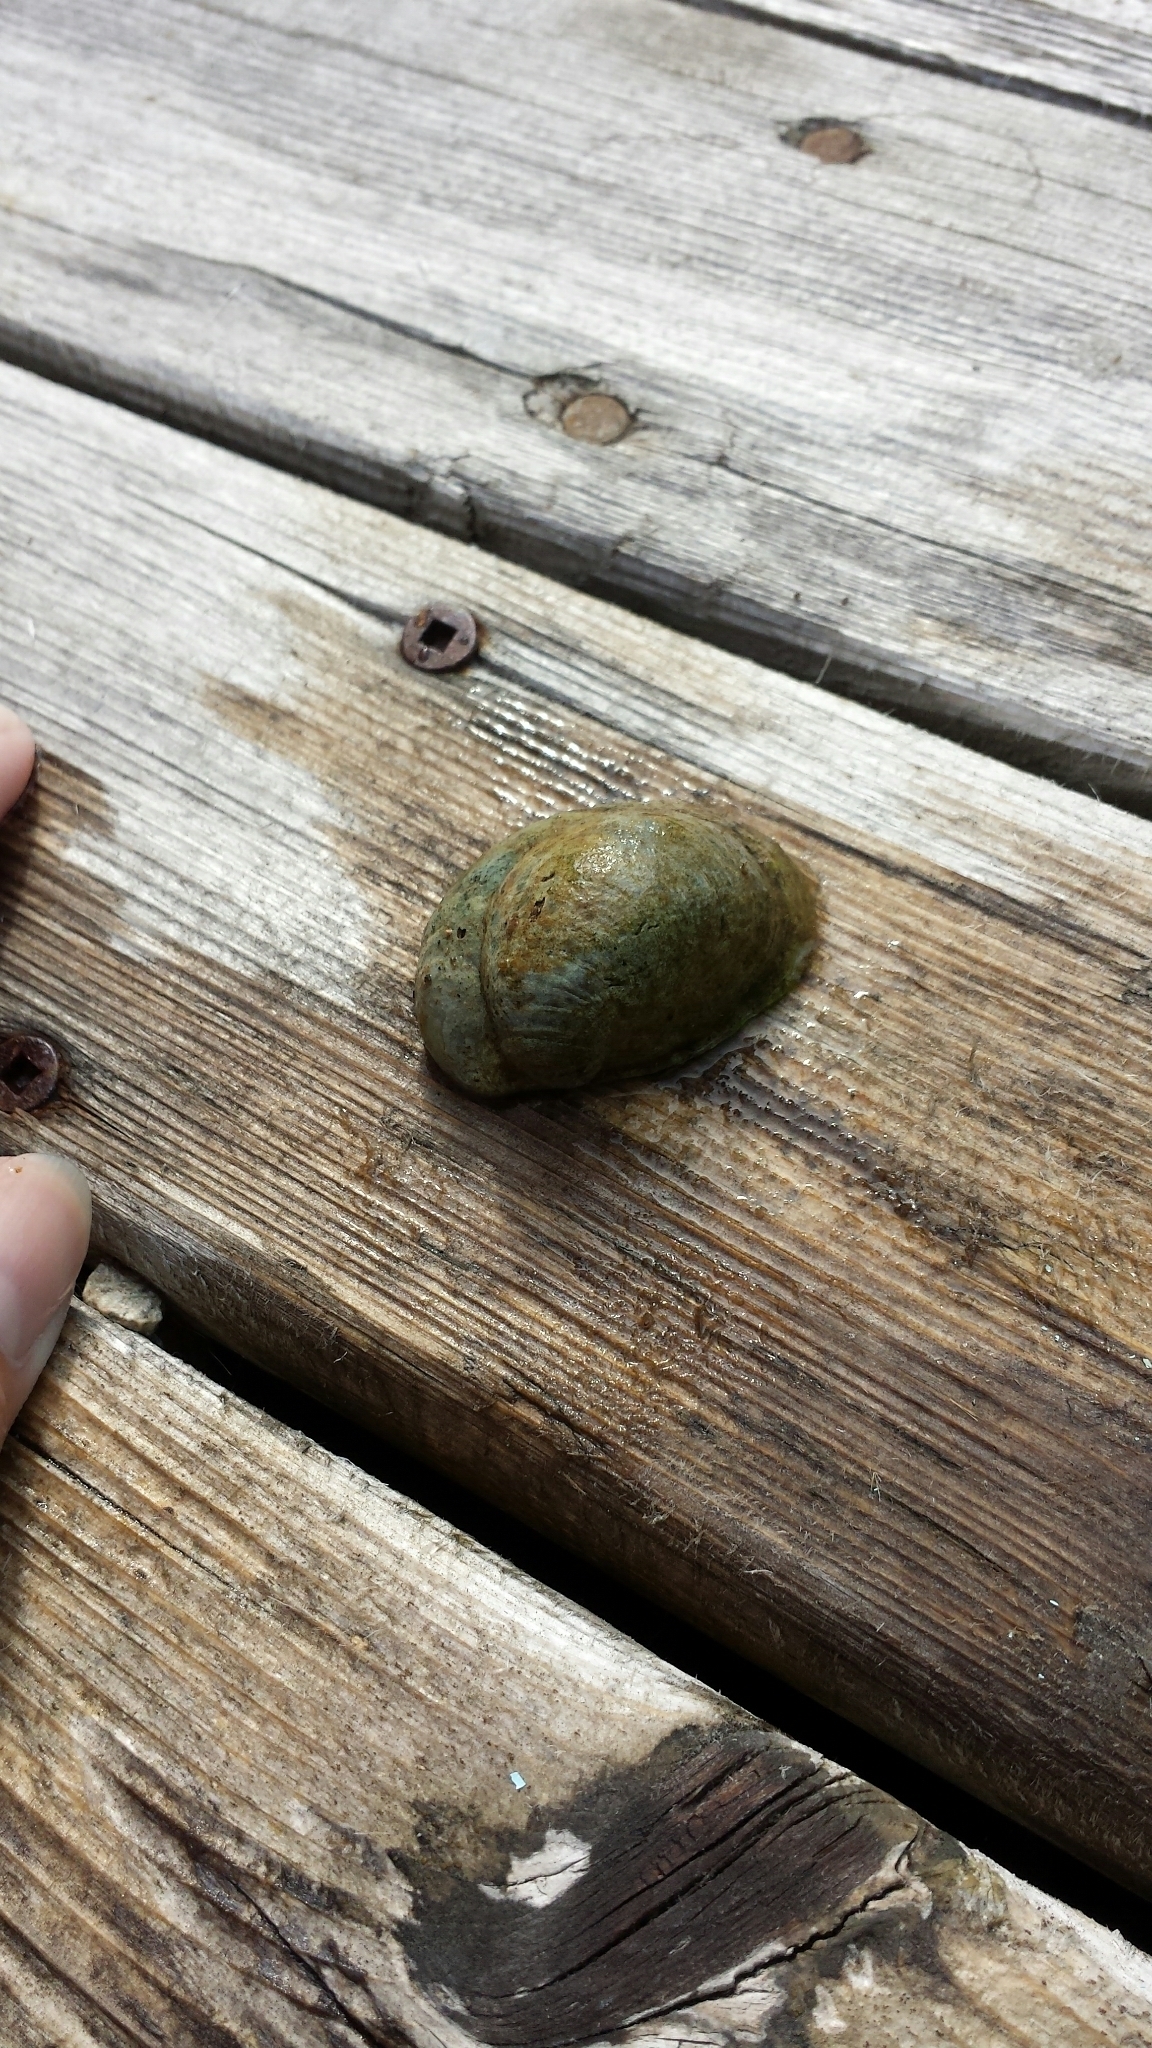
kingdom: Animalia
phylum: Mollusca
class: Gastropoda
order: Littorinimorpha
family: Calyptraeidae
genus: Crepidula
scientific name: Crepidula fornicata
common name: Slipper limpet
